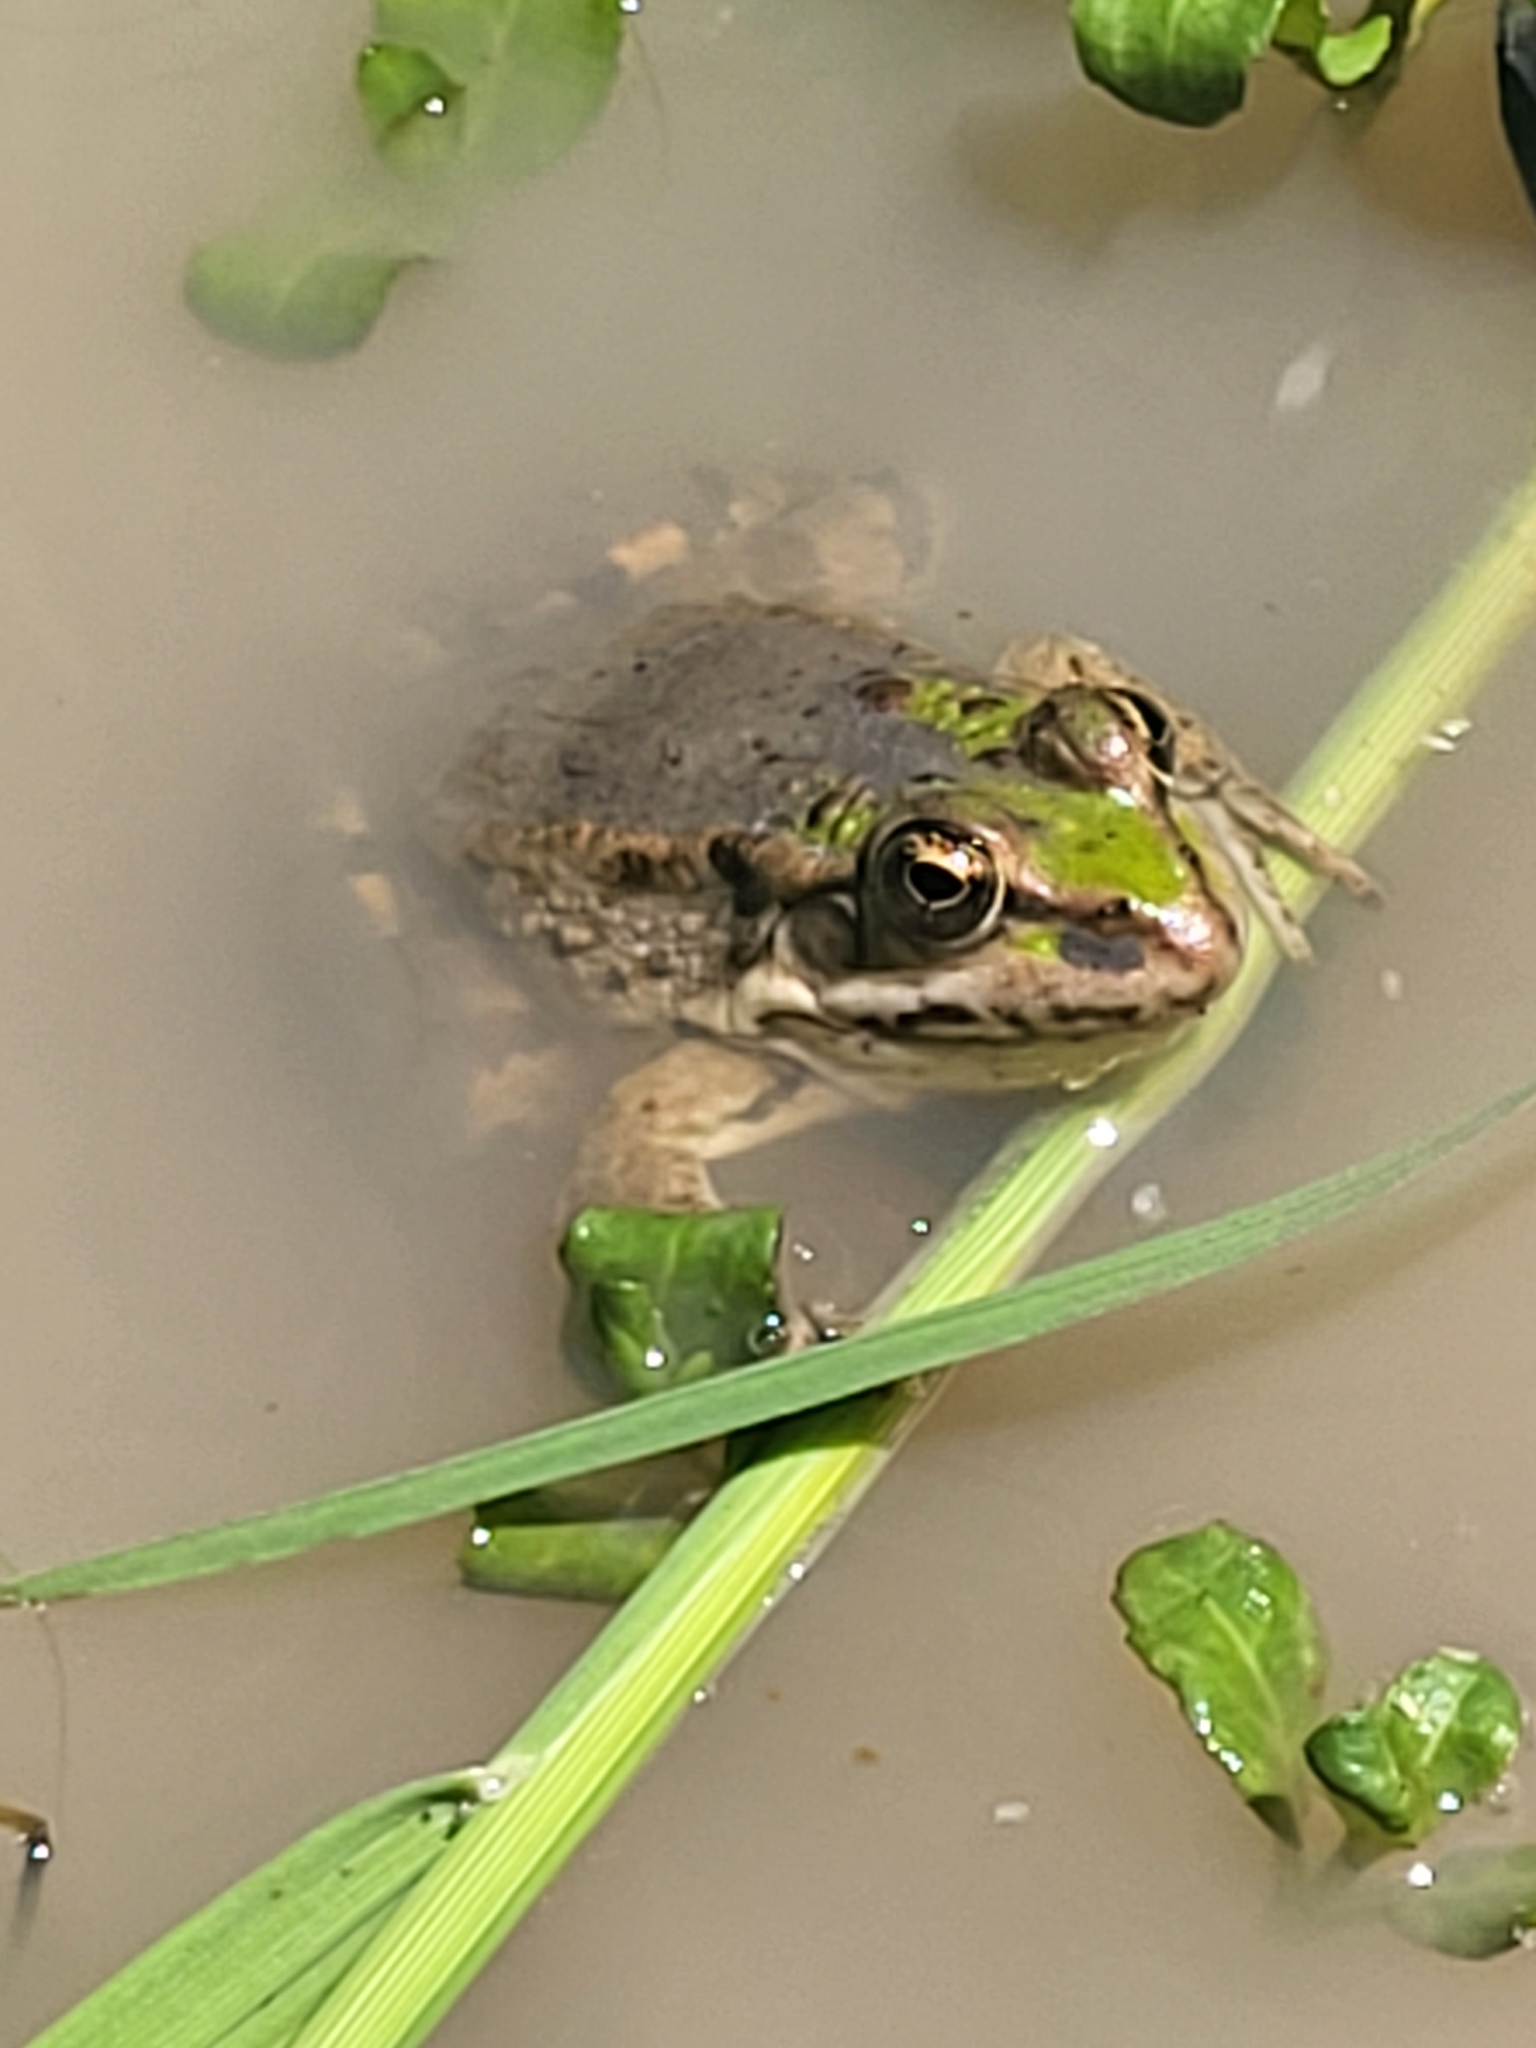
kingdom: Animalia
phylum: Chordata
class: Amphibia
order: Anura
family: Ranidae
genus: Pelophylax
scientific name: Pelophylax ridibundus
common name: Marsh frog
